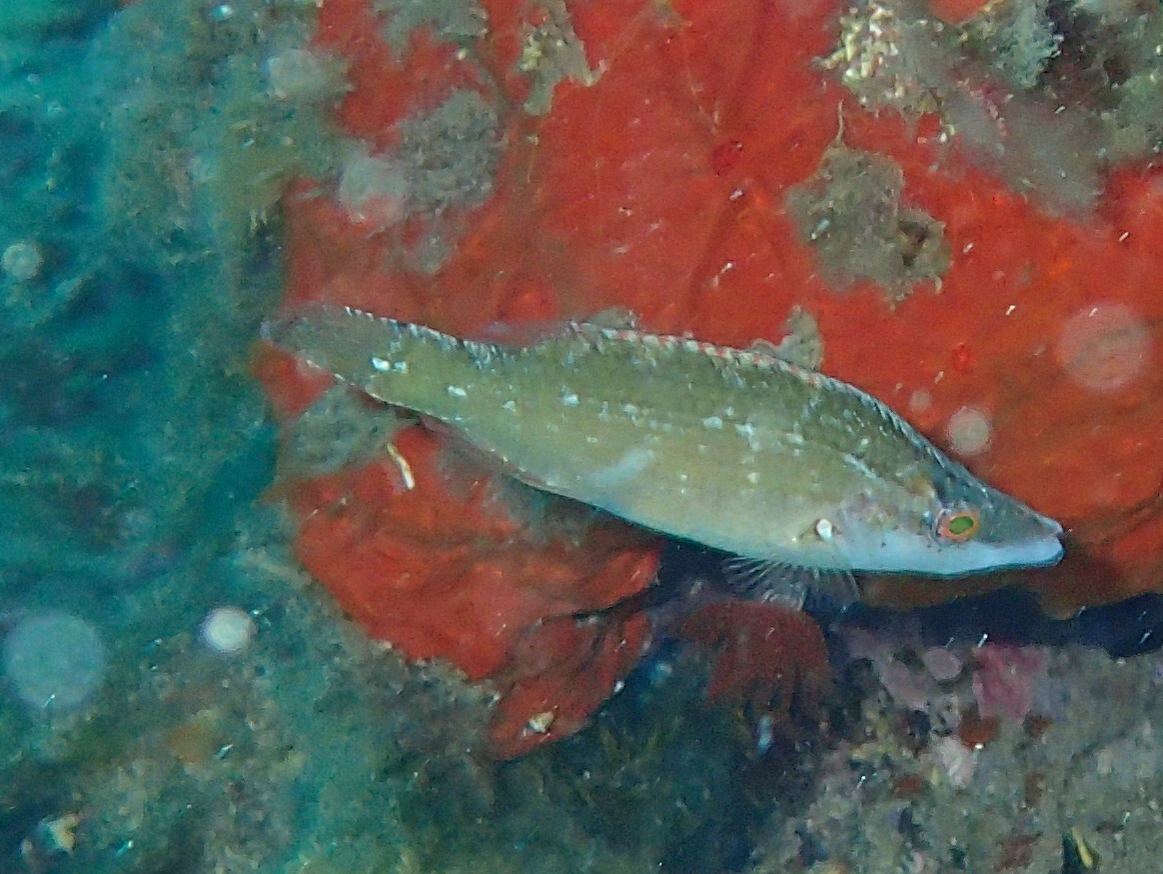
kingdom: Animalia
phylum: Chordata
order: Perciformes
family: Labridae
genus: Symphodus
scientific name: Symphodus rostratus
